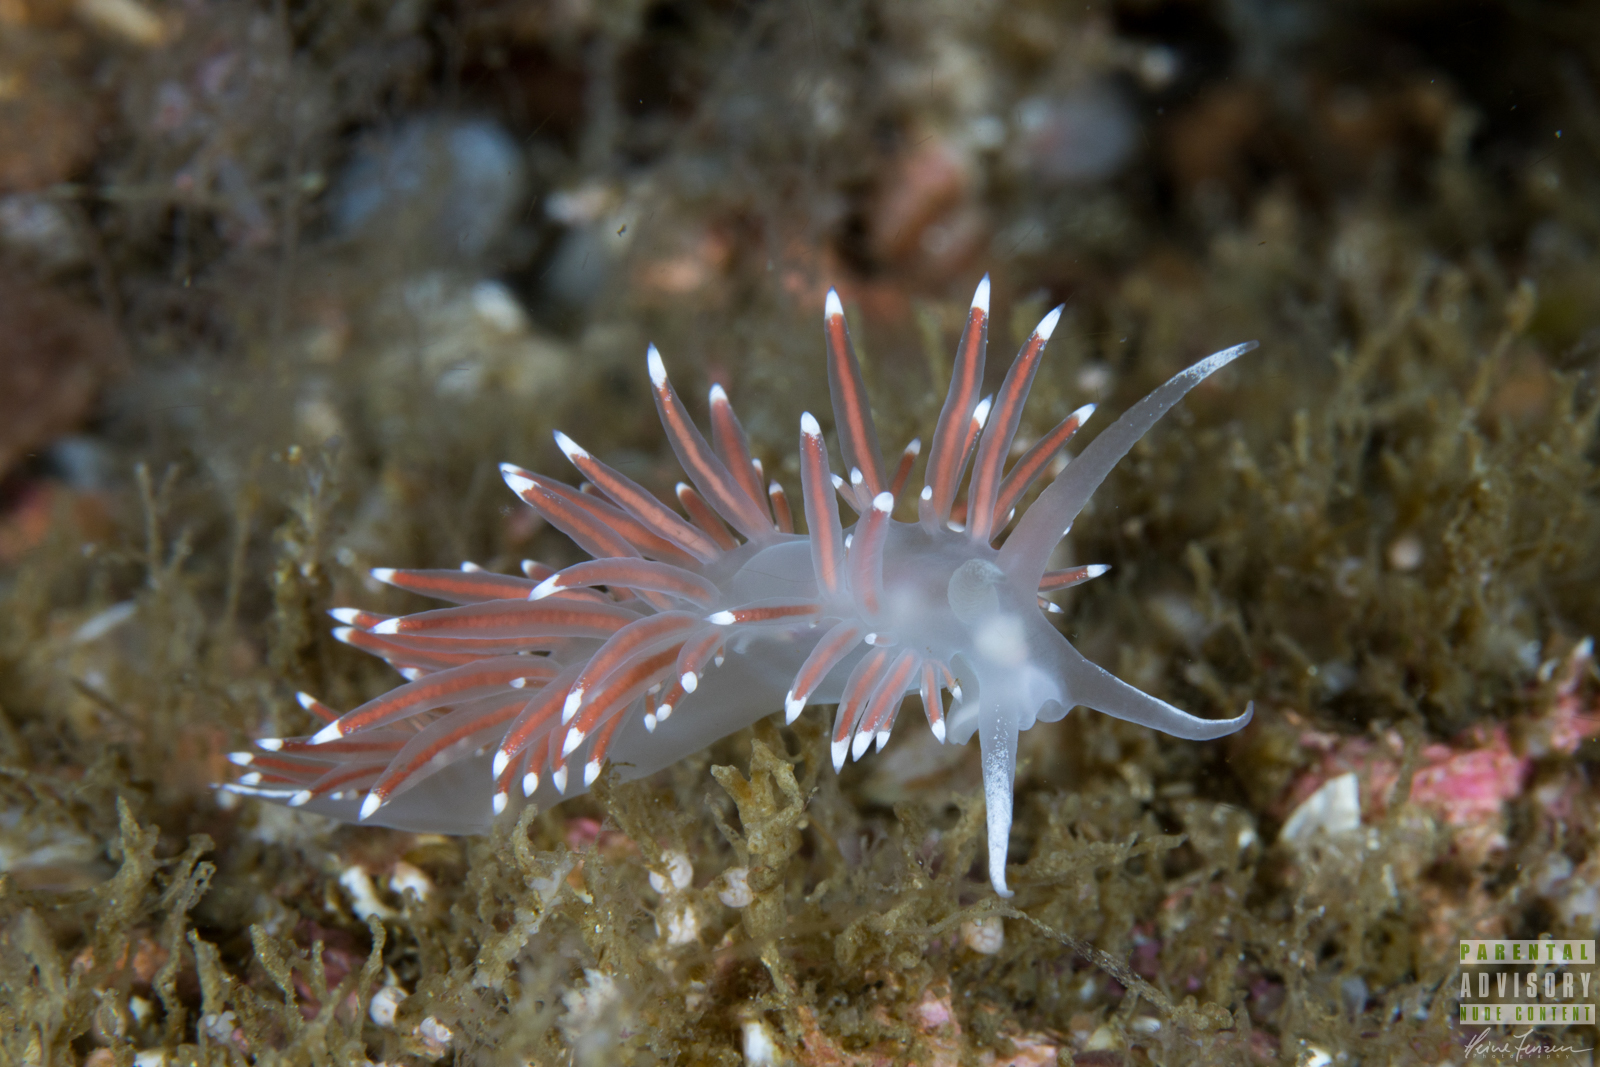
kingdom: Animalia
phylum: Mollusca
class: Gastropoda
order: Nudibranchia
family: Coryphellidae
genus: Coryphella
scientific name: Coryphella browni
